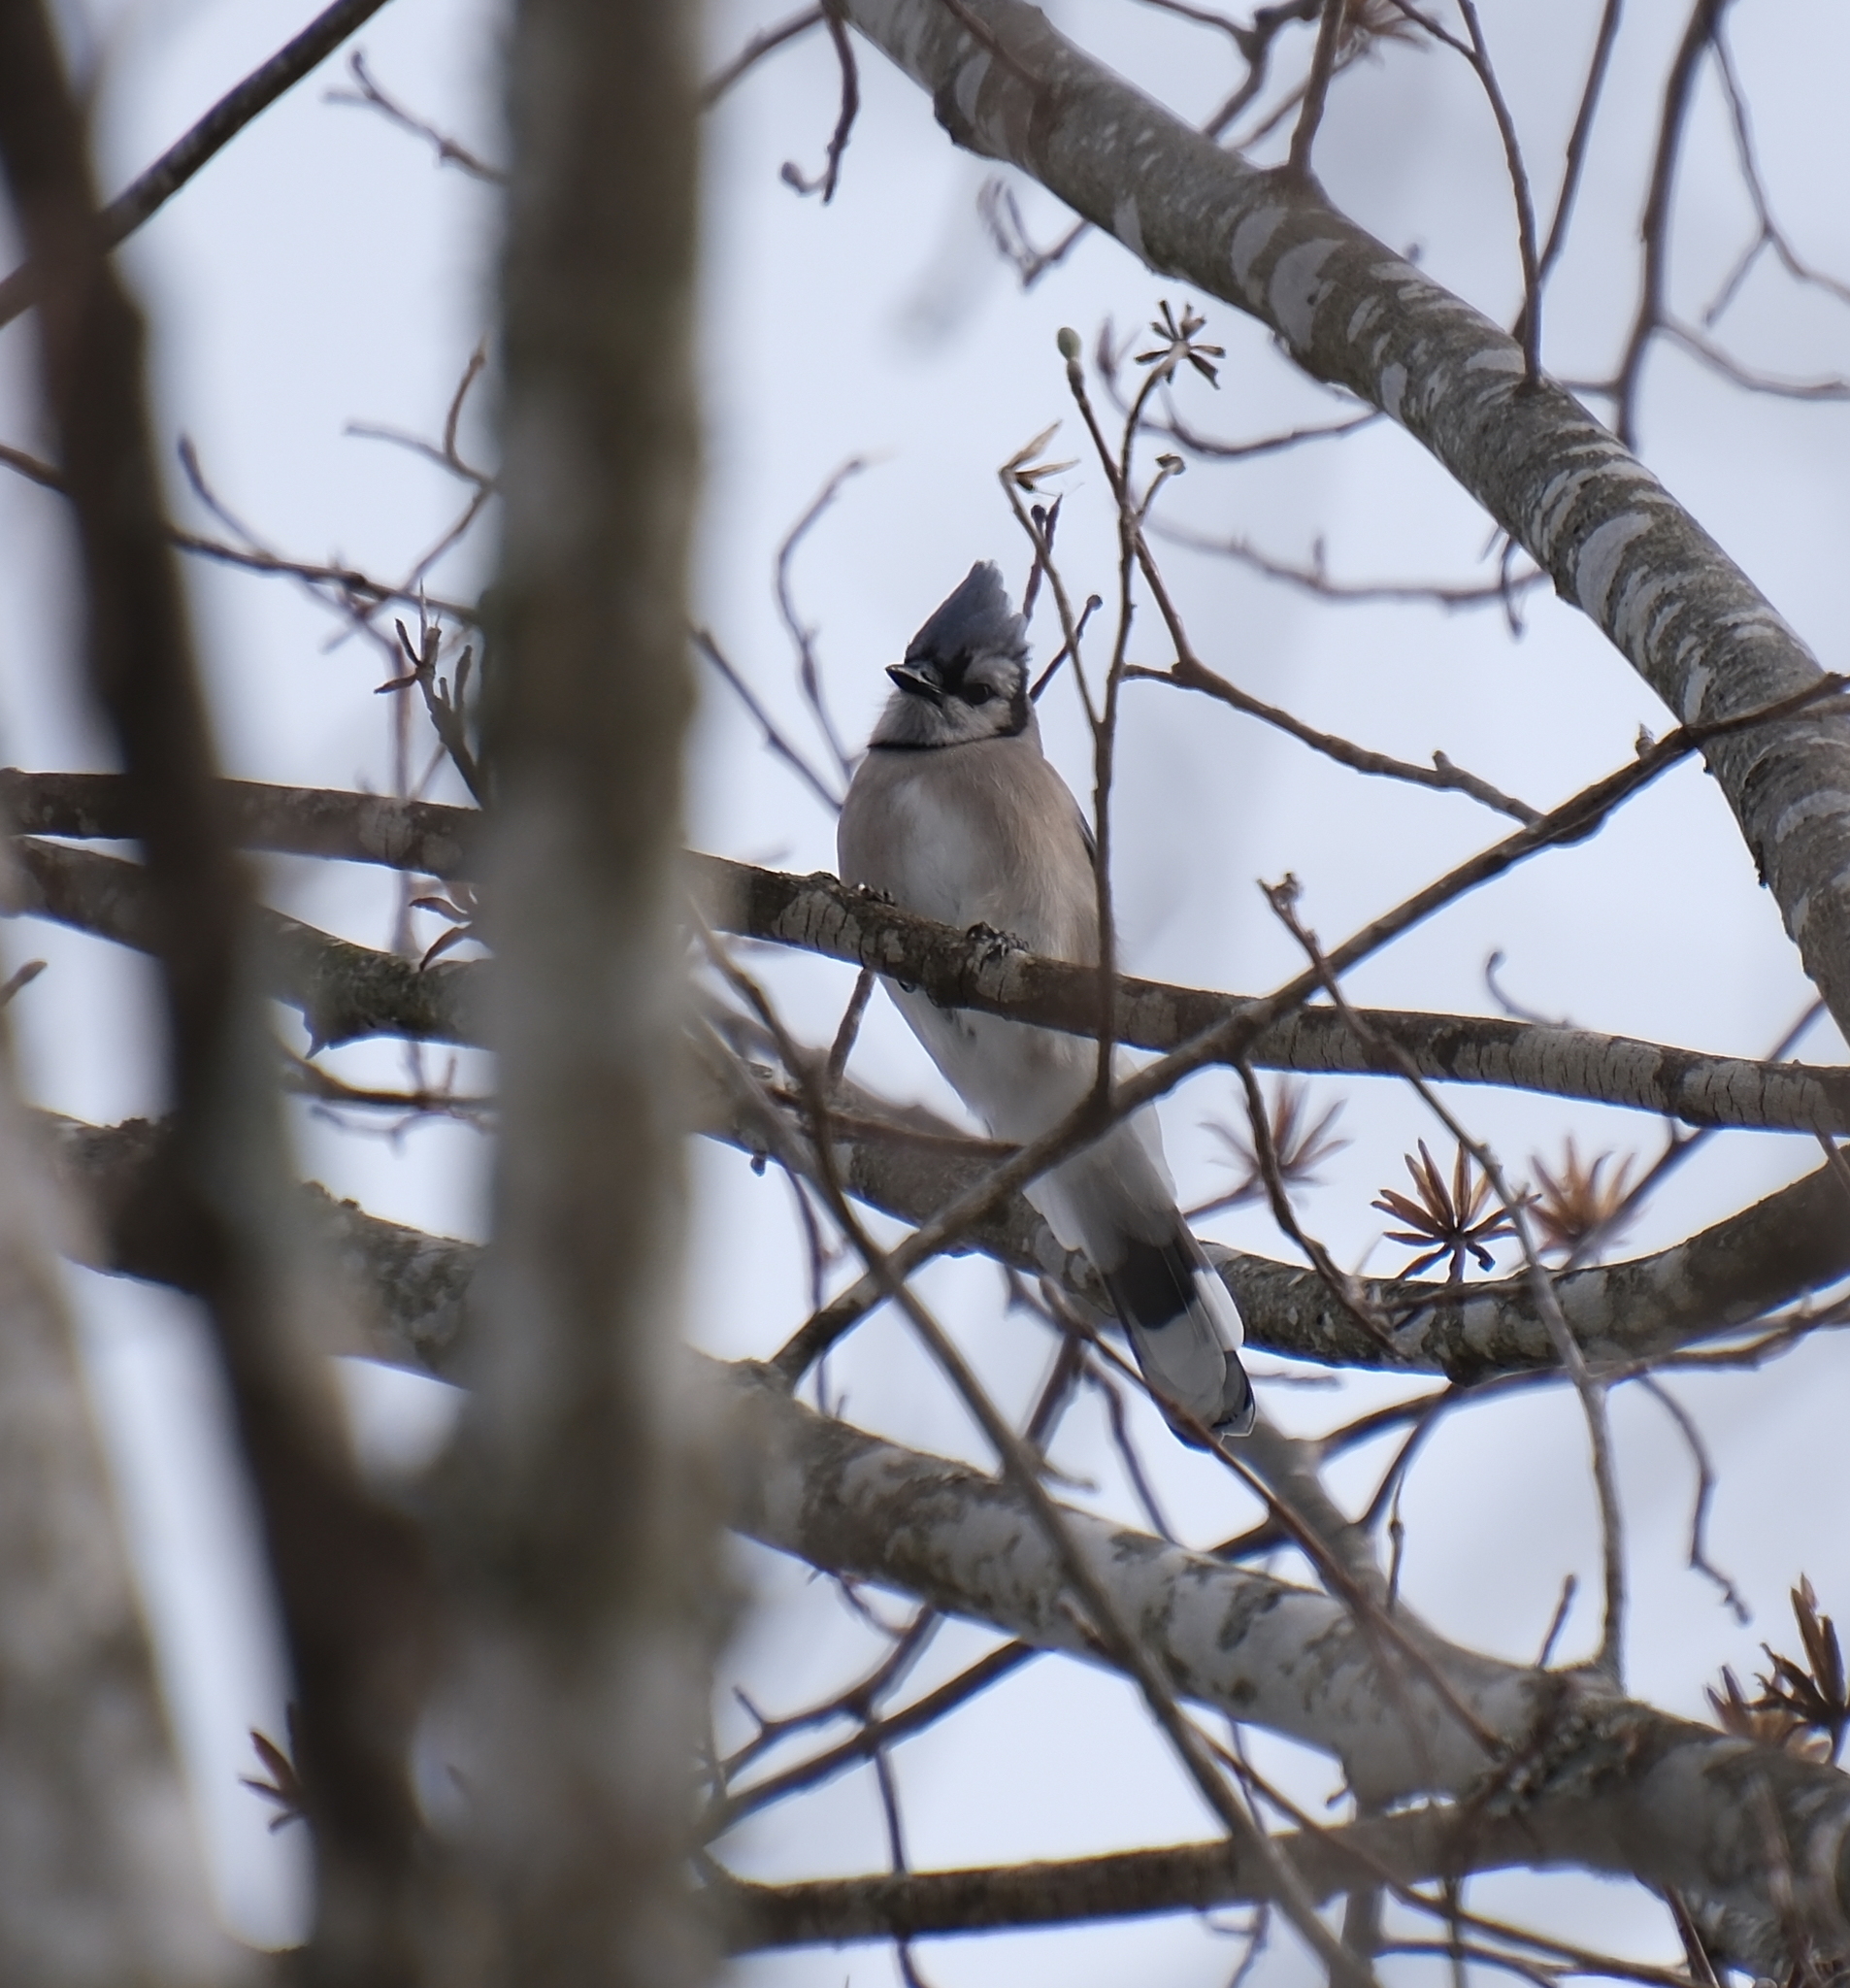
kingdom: Animalia
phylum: Chordata
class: Aves
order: Passeriformes
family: Corvidae
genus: Cyanocitta
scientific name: Cyanocitta cristata
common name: Blue jay
